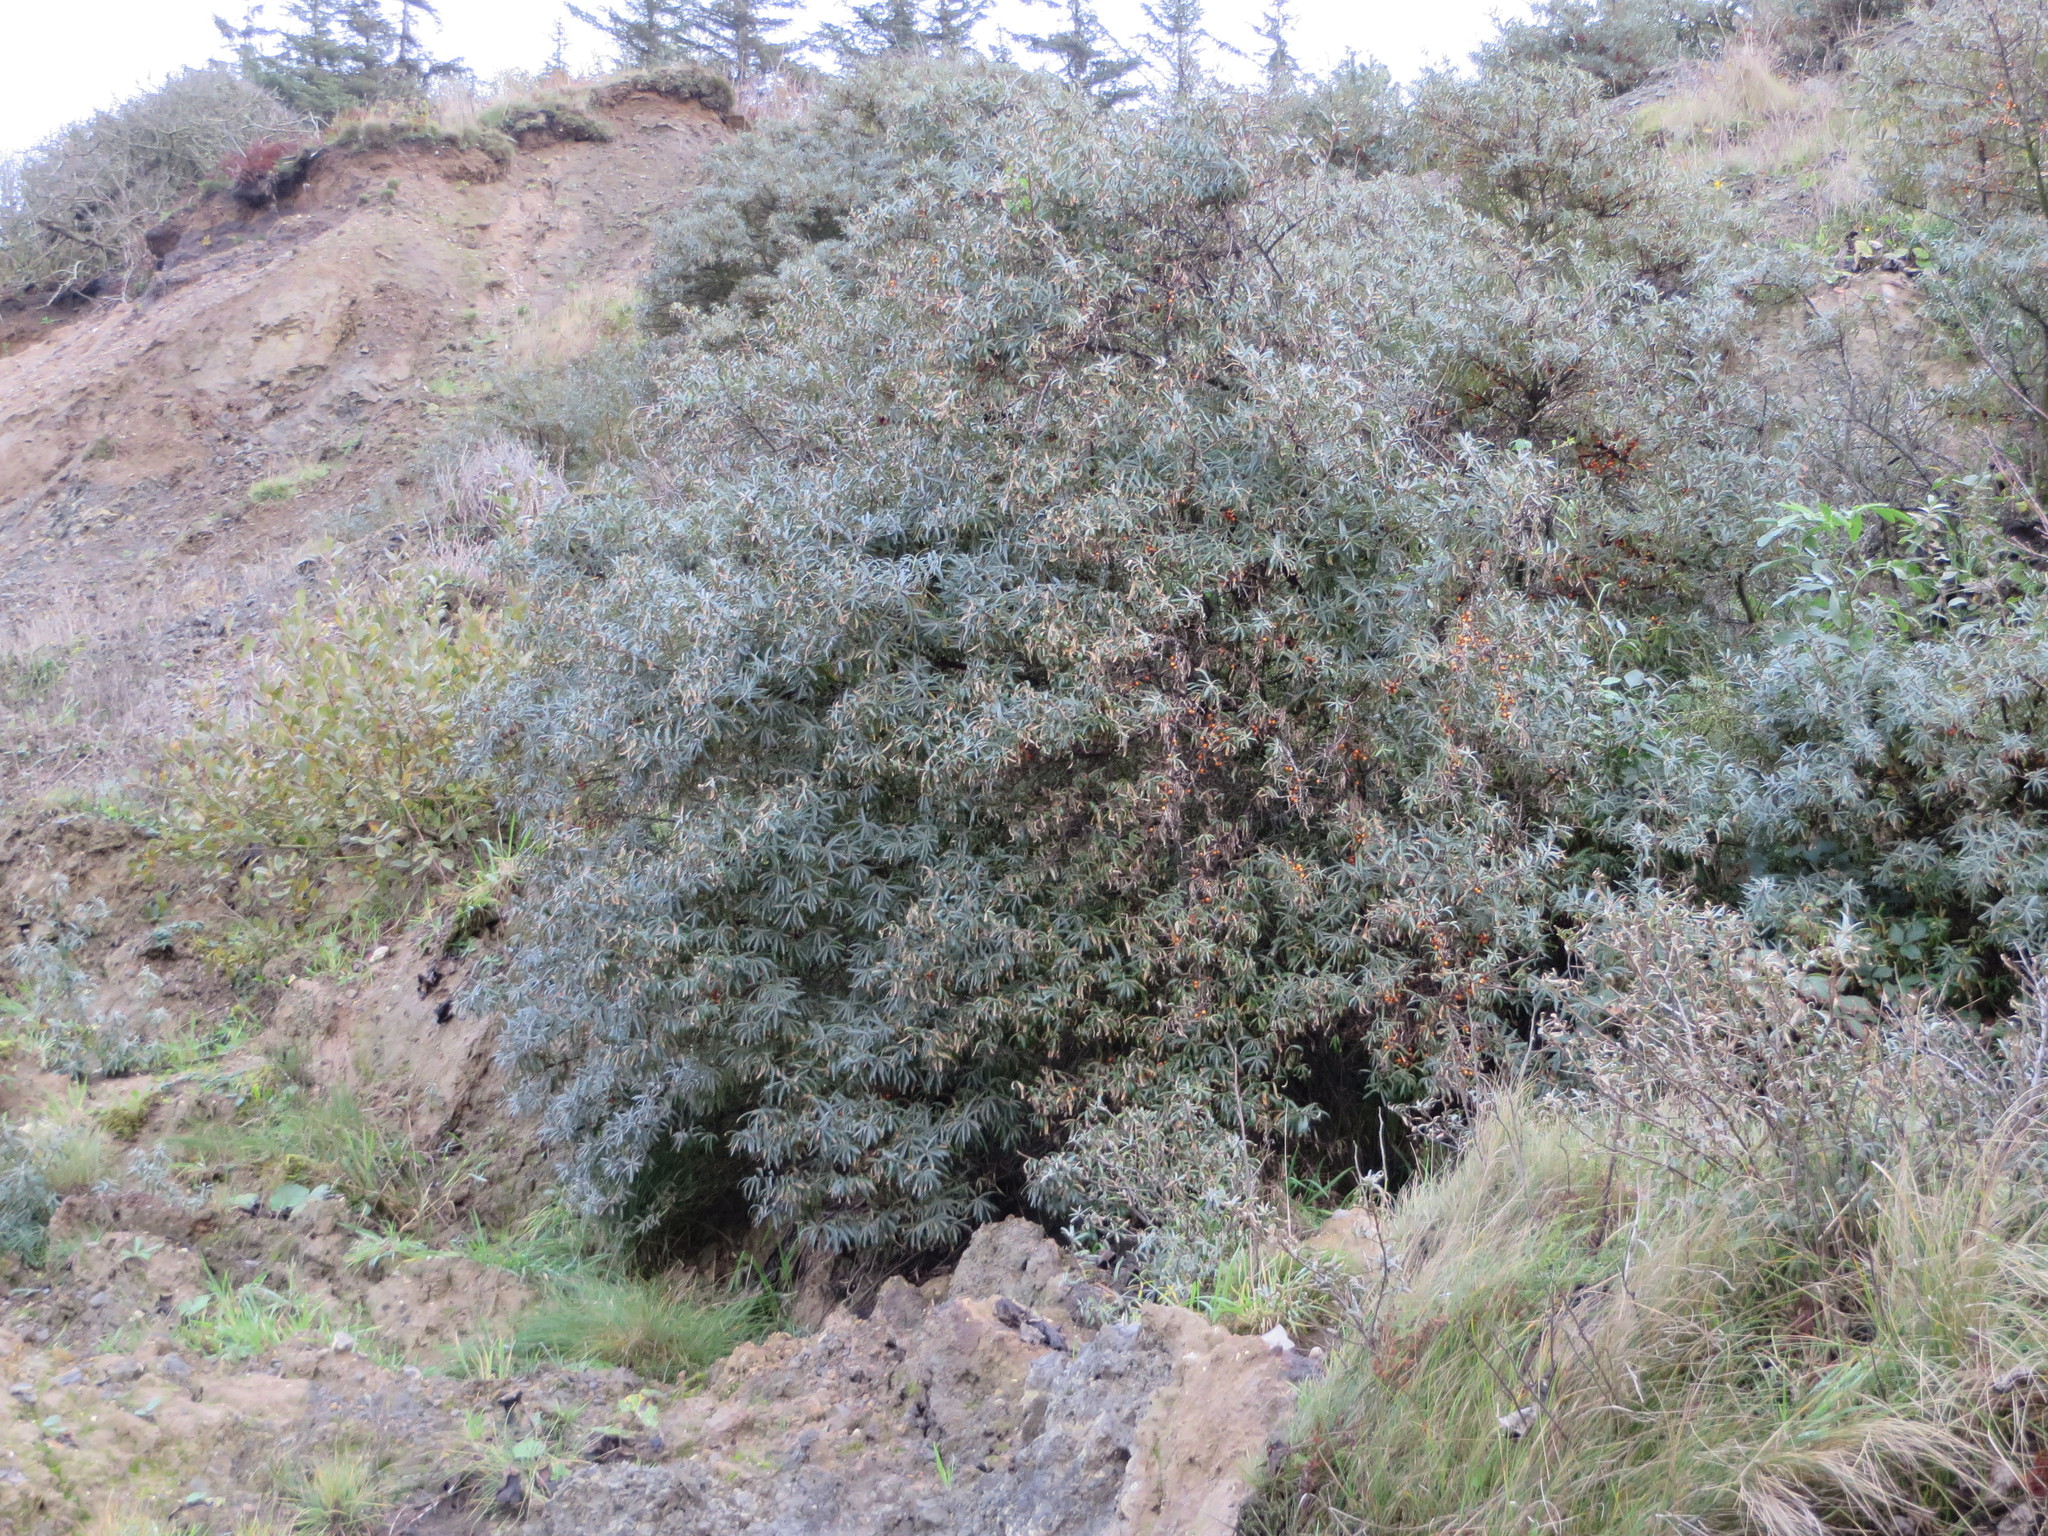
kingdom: Plantae
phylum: Tracheophyta
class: Magnoliopsida
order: Rosales
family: Elaeagnaceae
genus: Hippophae
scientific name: Hippophae rhamnoides
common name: Sea-buckthorn
